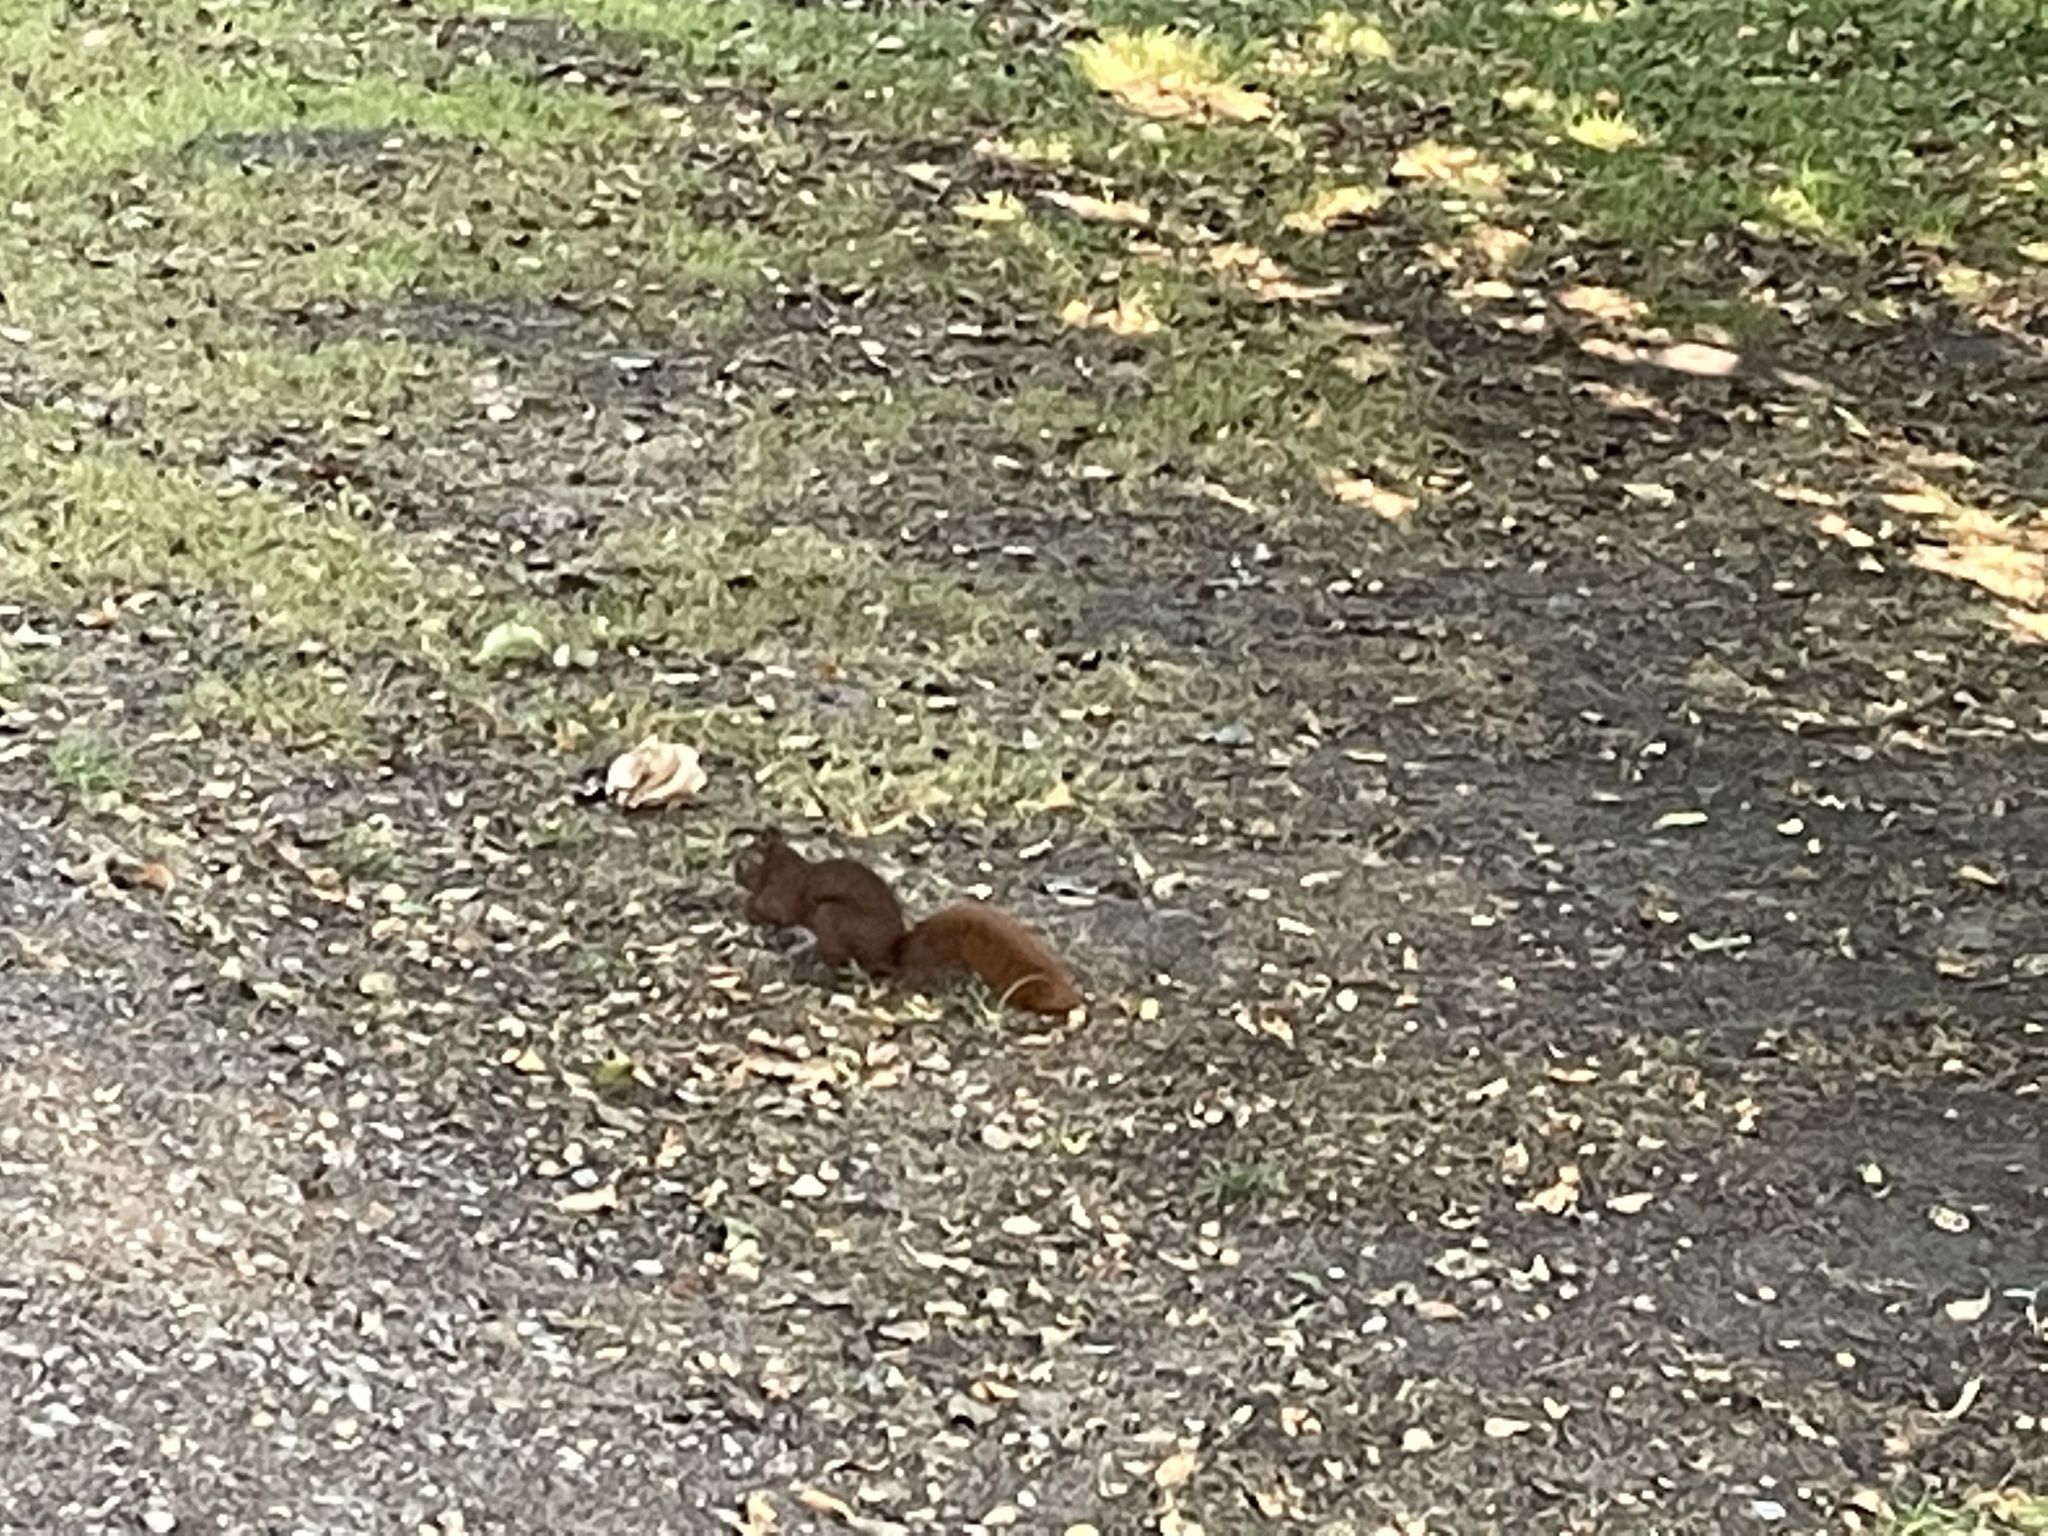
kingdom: Animalia
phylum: Chordata
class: Mammalia
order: Rodentia
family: Sciuridae
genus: Sciurus
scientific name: Sciurus vulgaris
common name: Eurasian red squirrel
